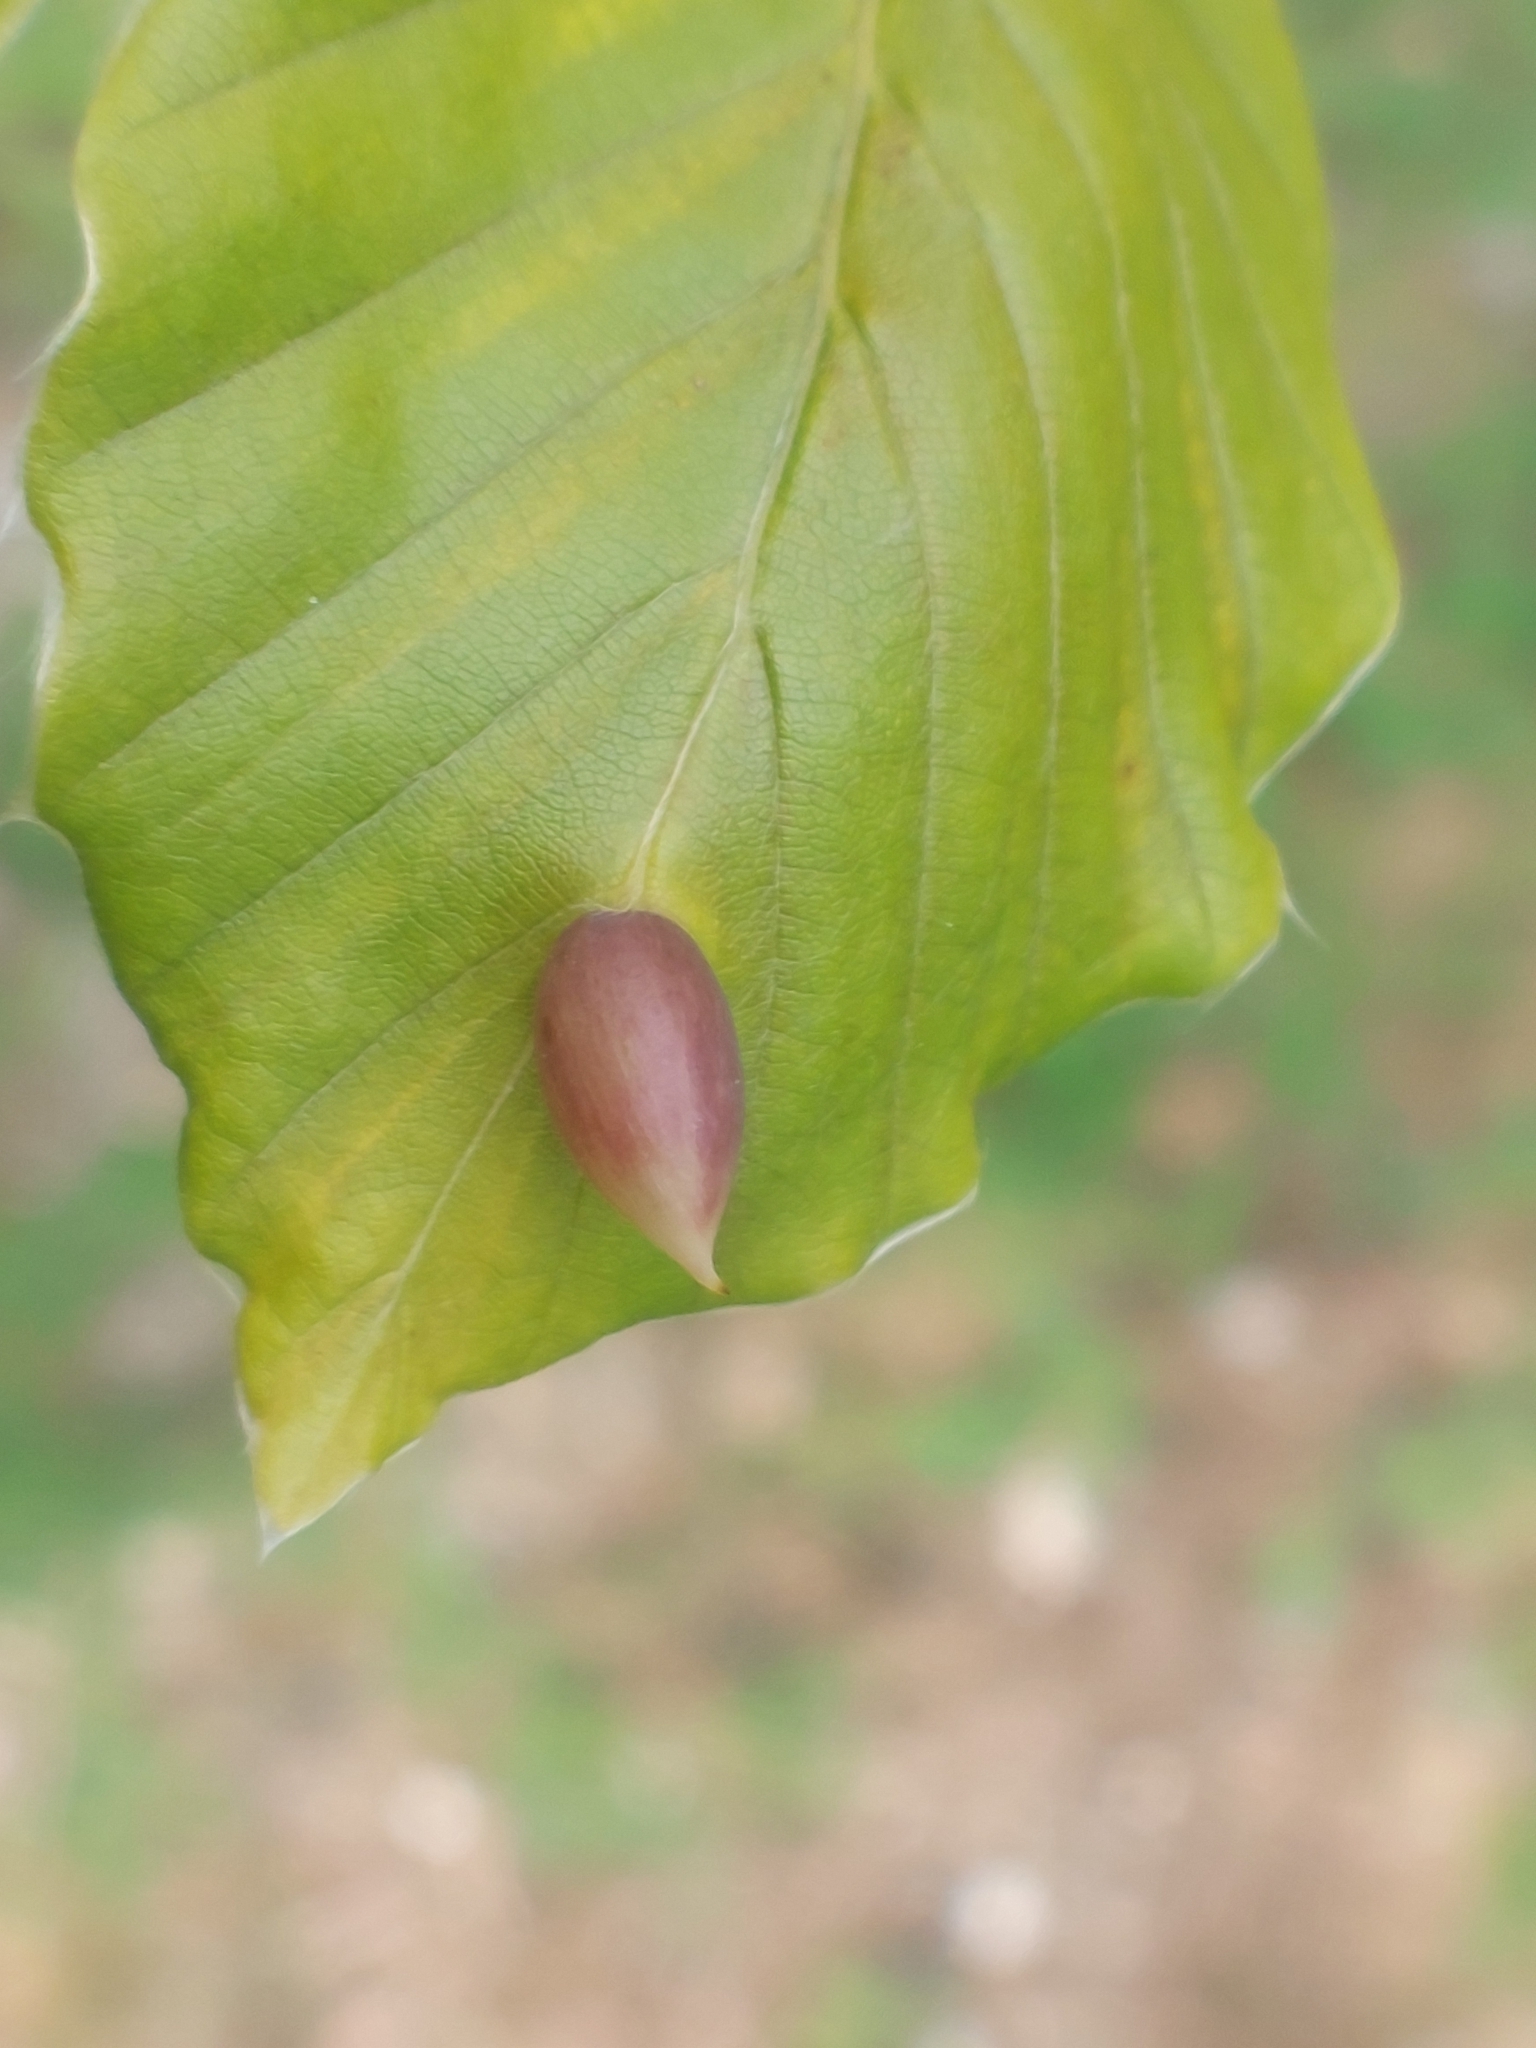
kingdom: Animalia
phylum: Arthropoda
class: Insecta
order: Diptera
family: Cecidomyiidae
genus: Mikiola
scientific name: Mikiola fagi
